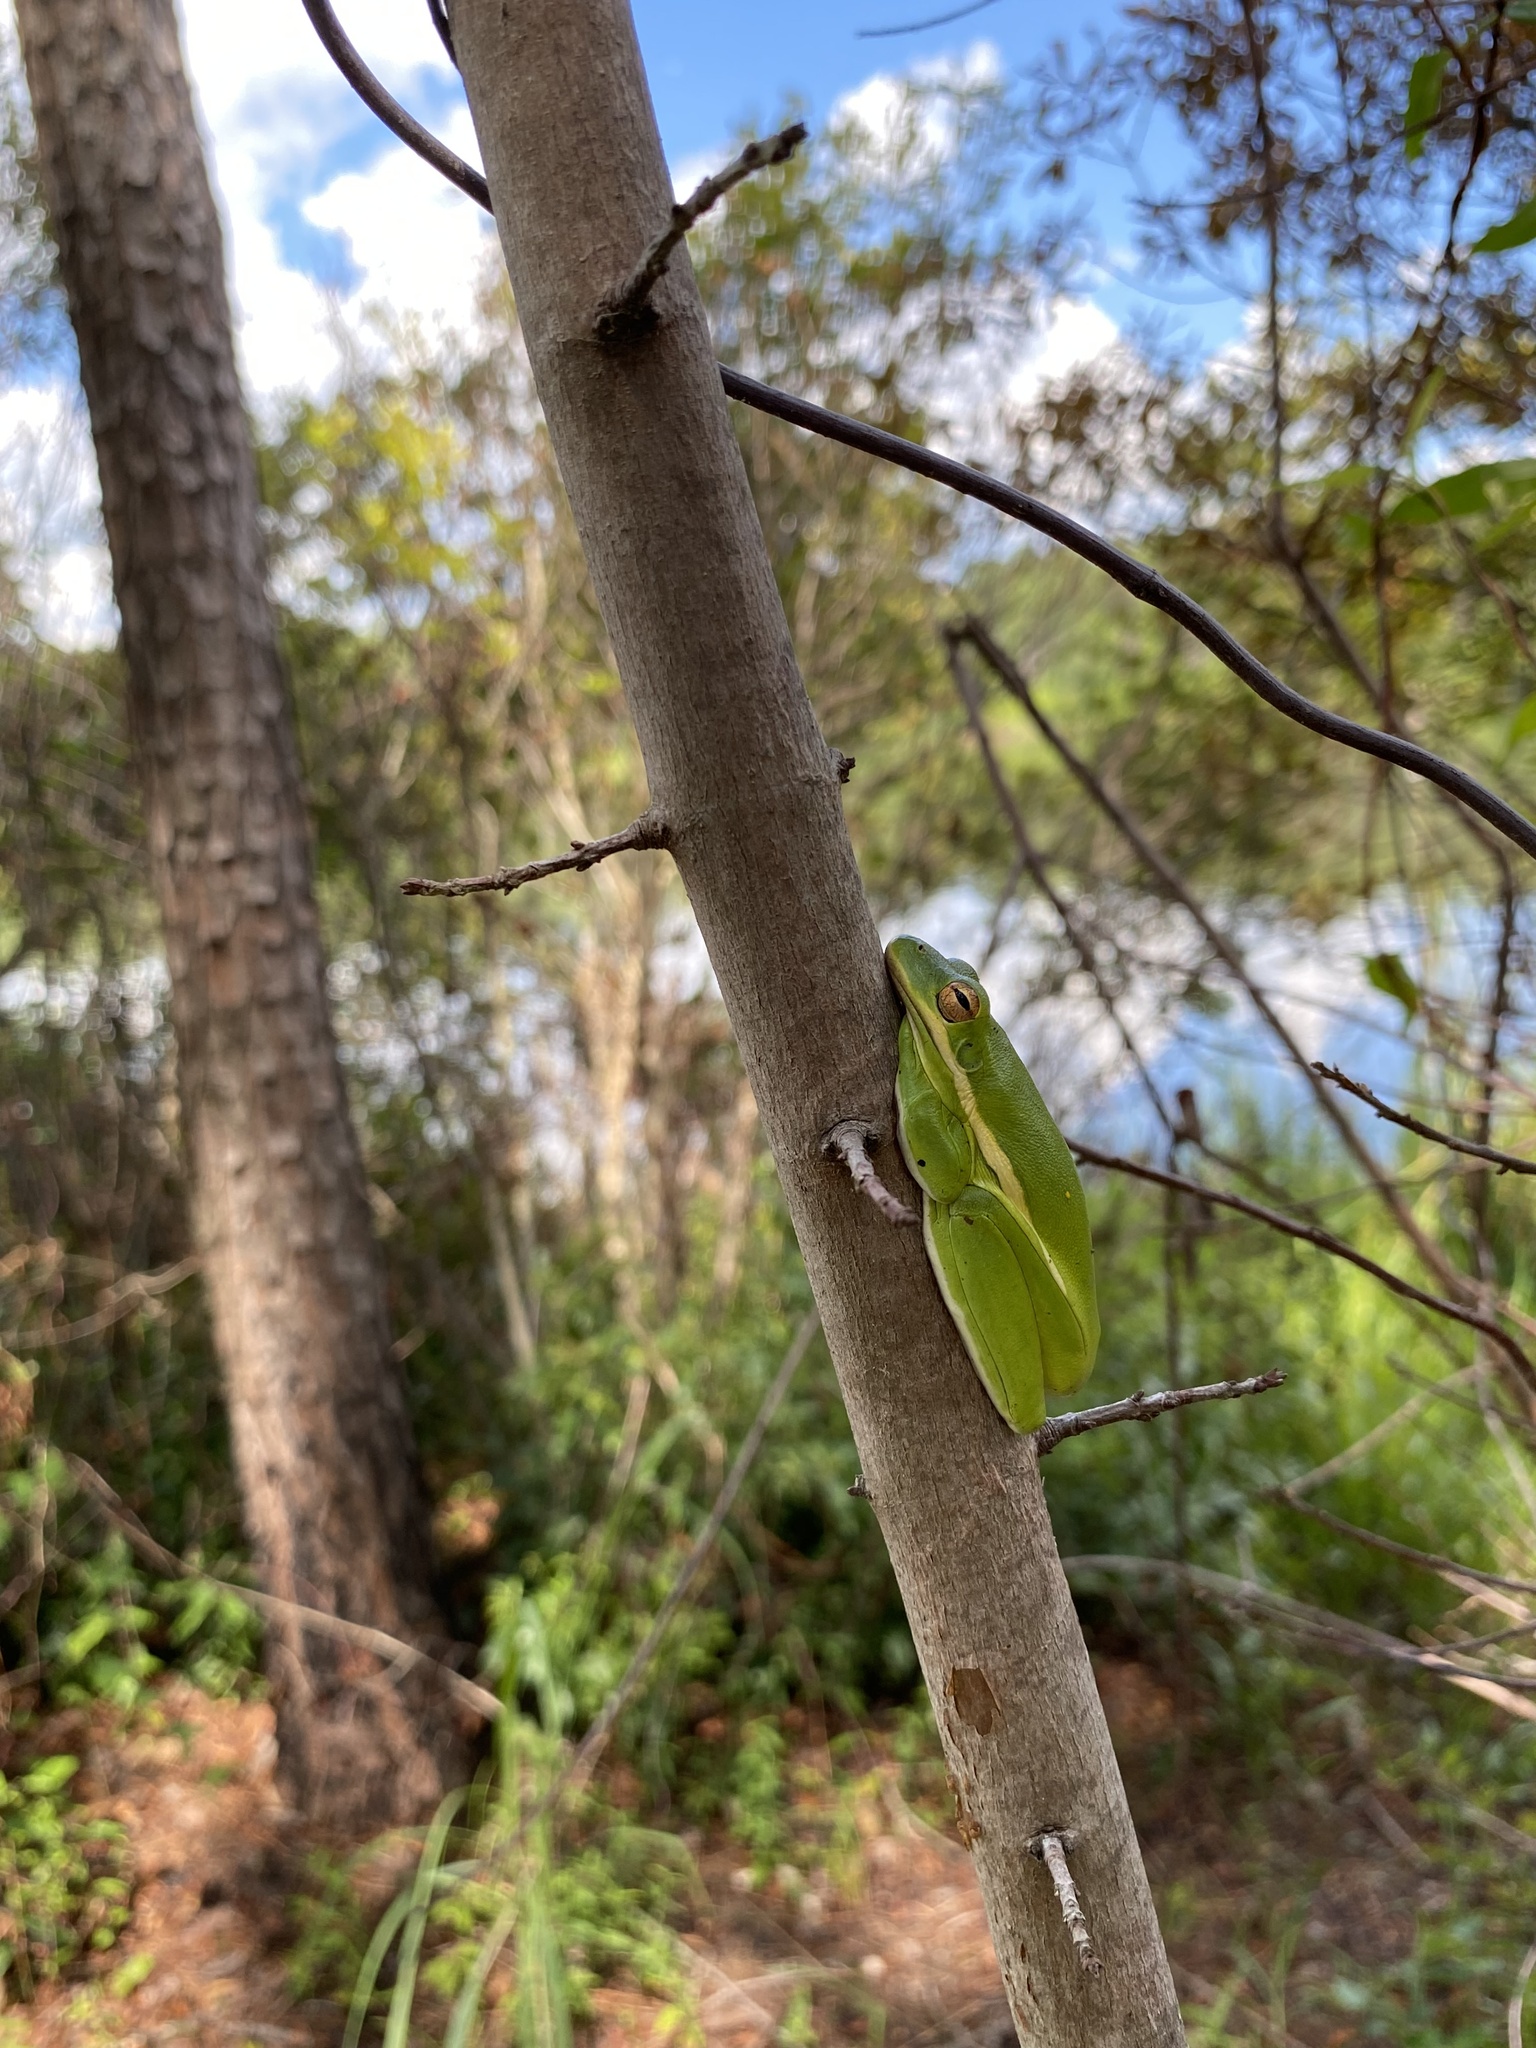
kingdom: Animalia
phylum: Chordata
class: Amphibia
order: Anura
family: Hylidae
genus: Dryophytes
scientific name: Dryophytes cinereus
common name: Green treefrog
